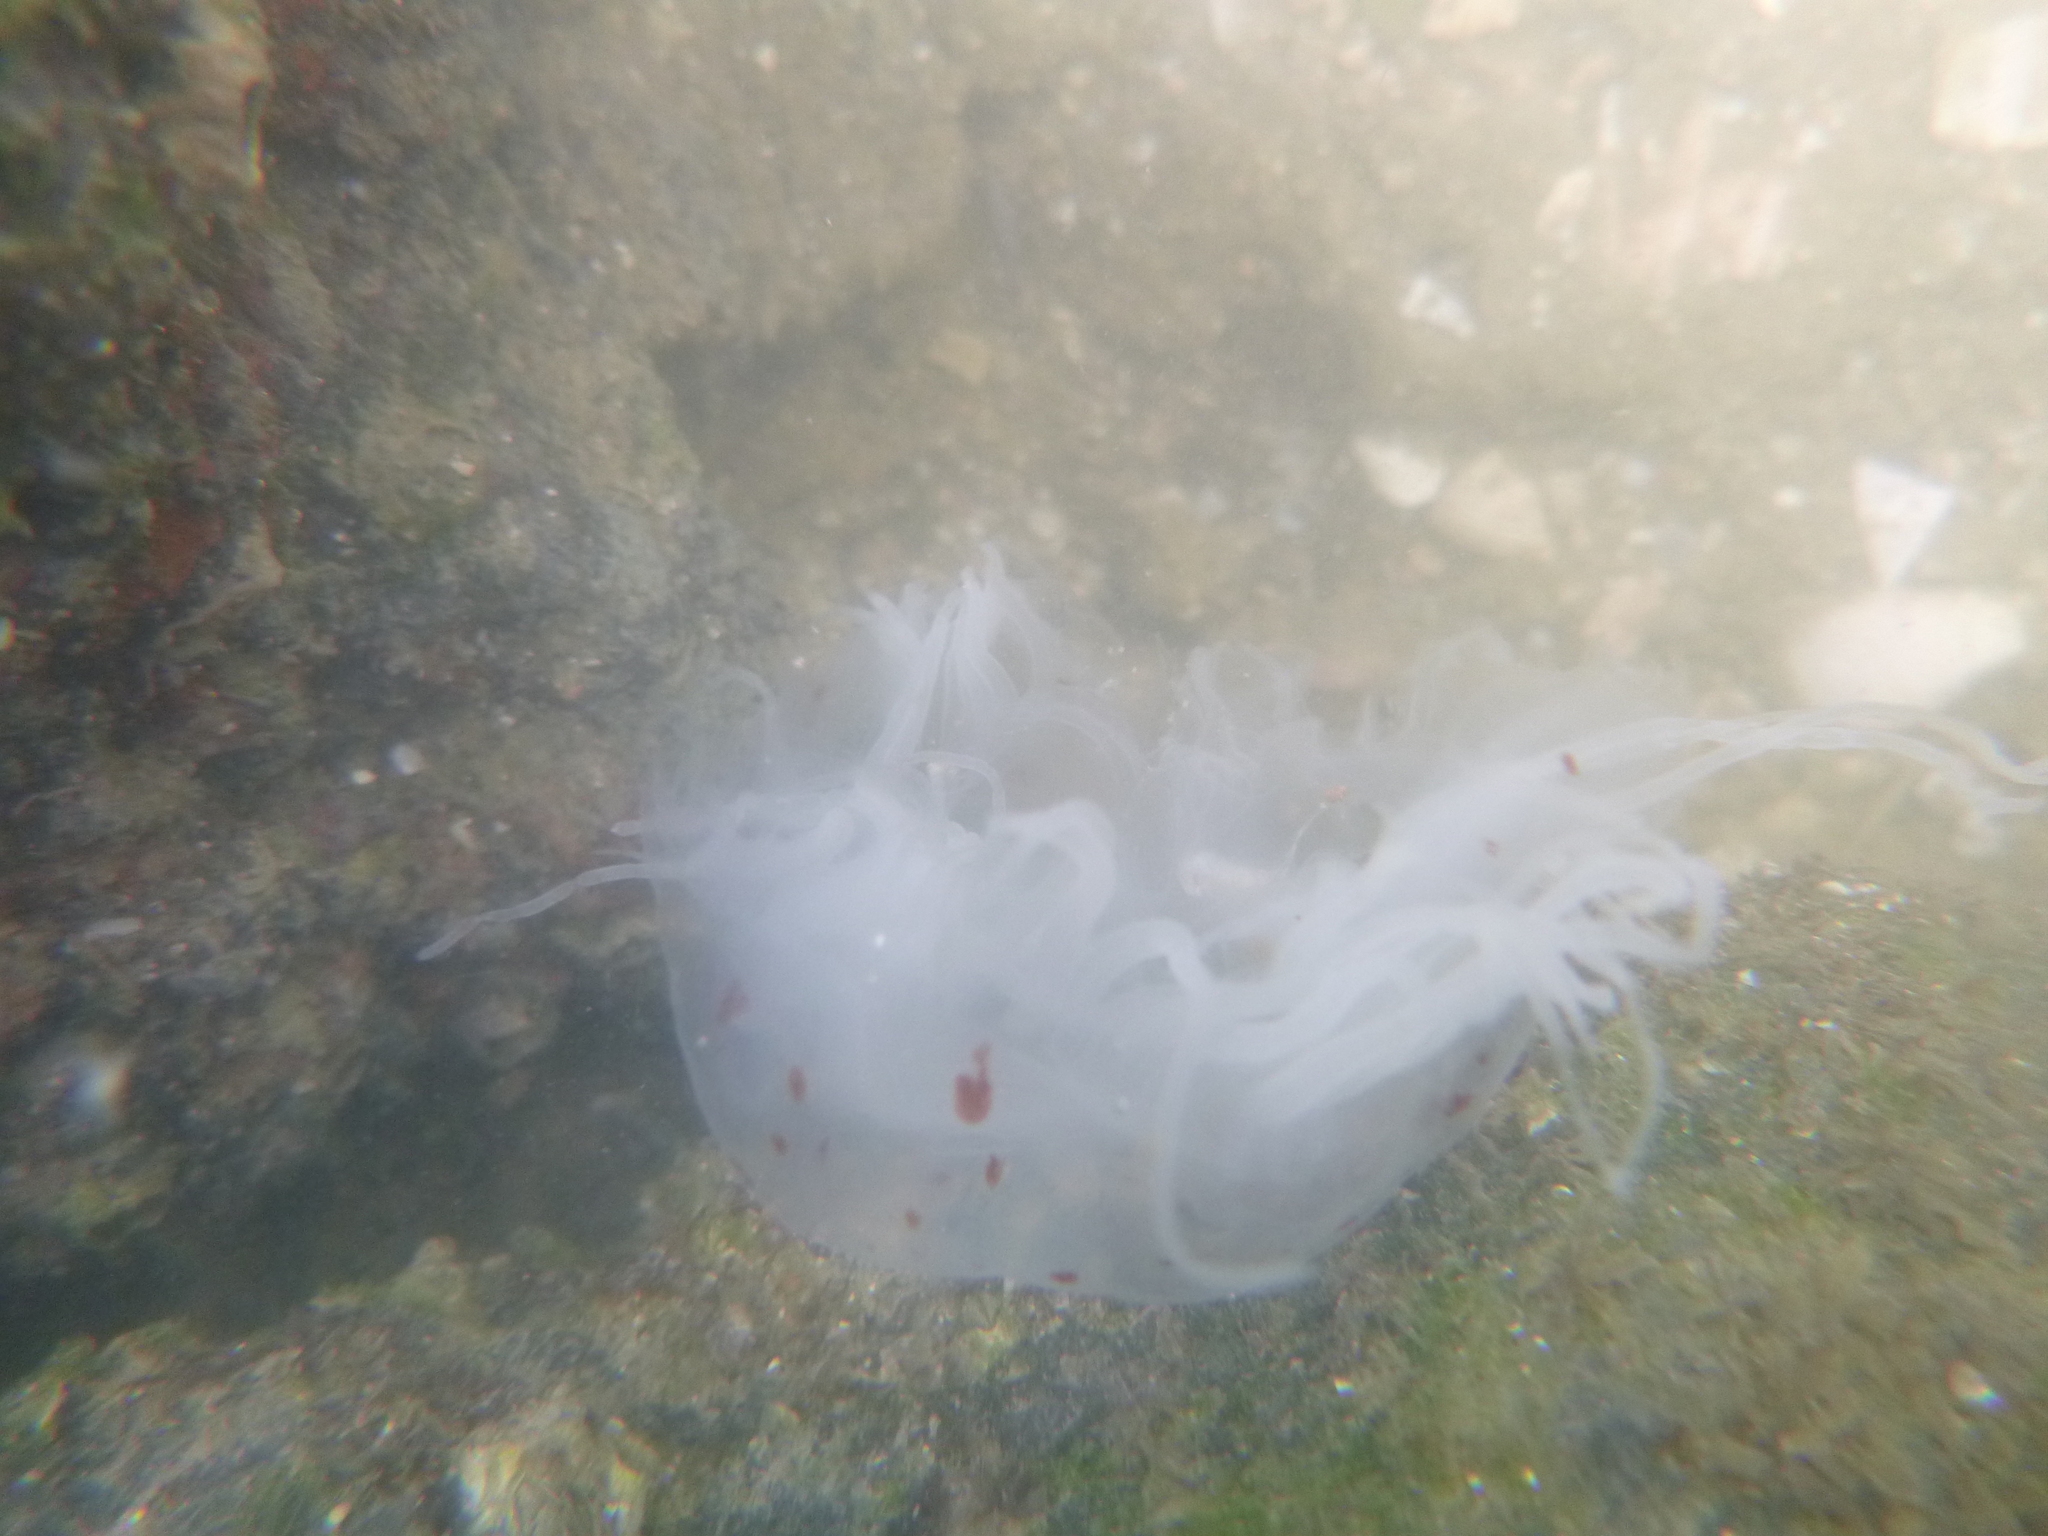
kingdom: Animalia
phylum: Cnidaria
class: Scyphozoa
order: Semaeostomeae
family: Cyaneidae
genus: Desmonema
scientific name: Desmonema gaudichaudi
